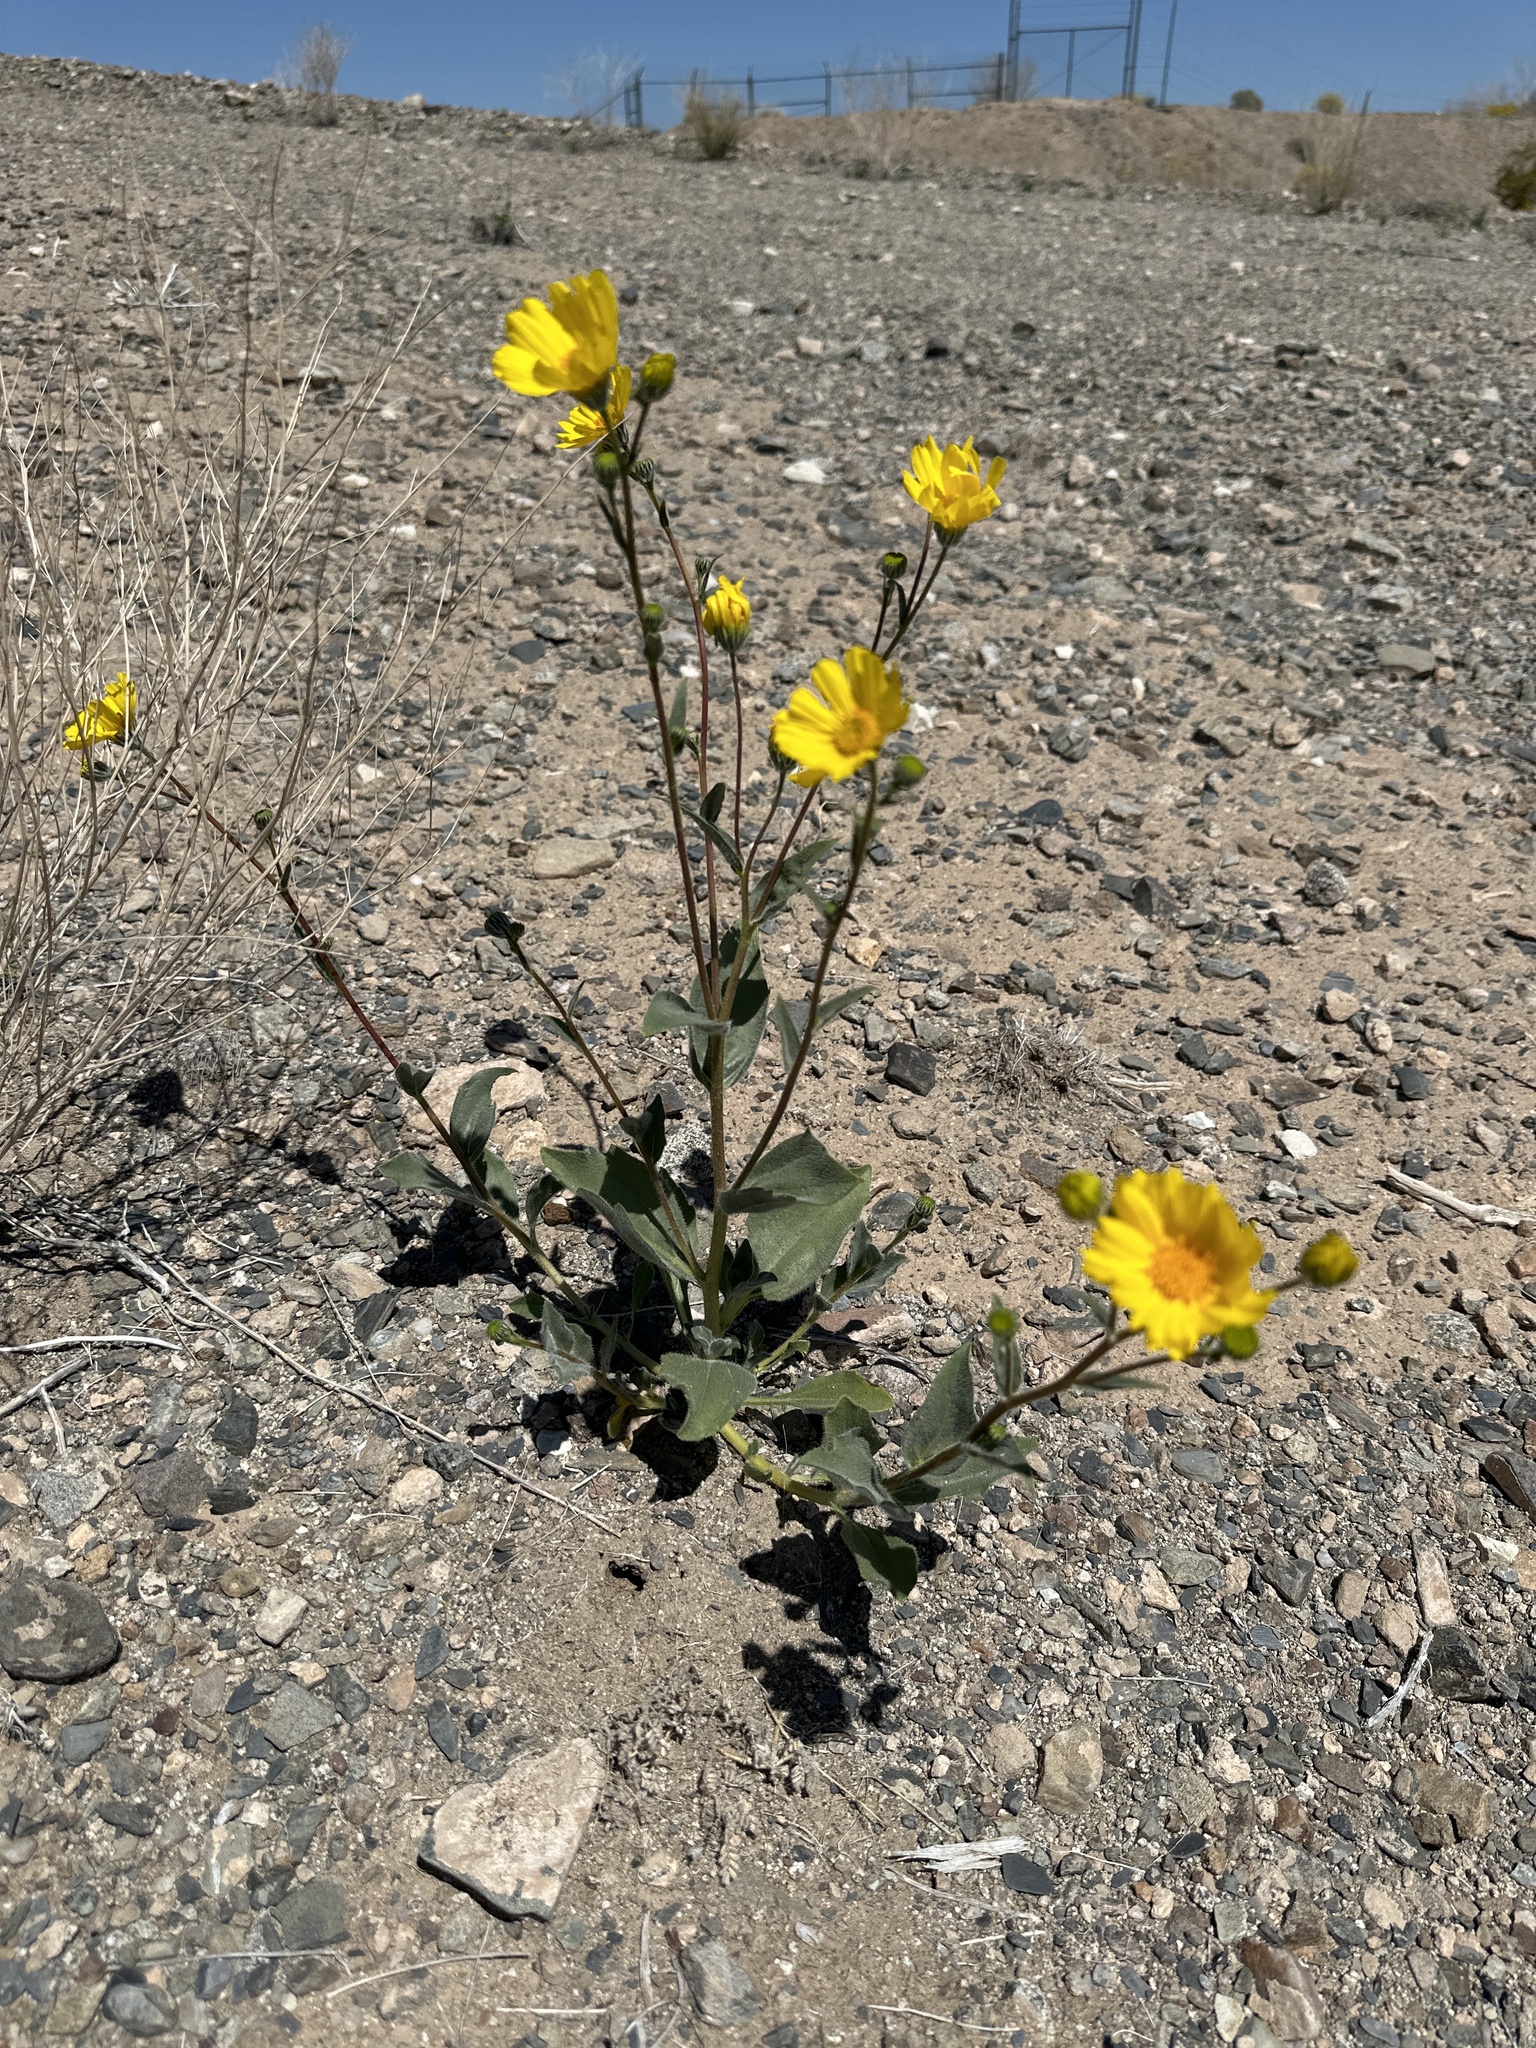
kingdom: Plantae
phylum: Tracheophyta
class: Magnoliopsida
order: Asterales
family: Asteraceae
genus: Geraea
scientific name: Geraea canescens
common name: Desert-gold
